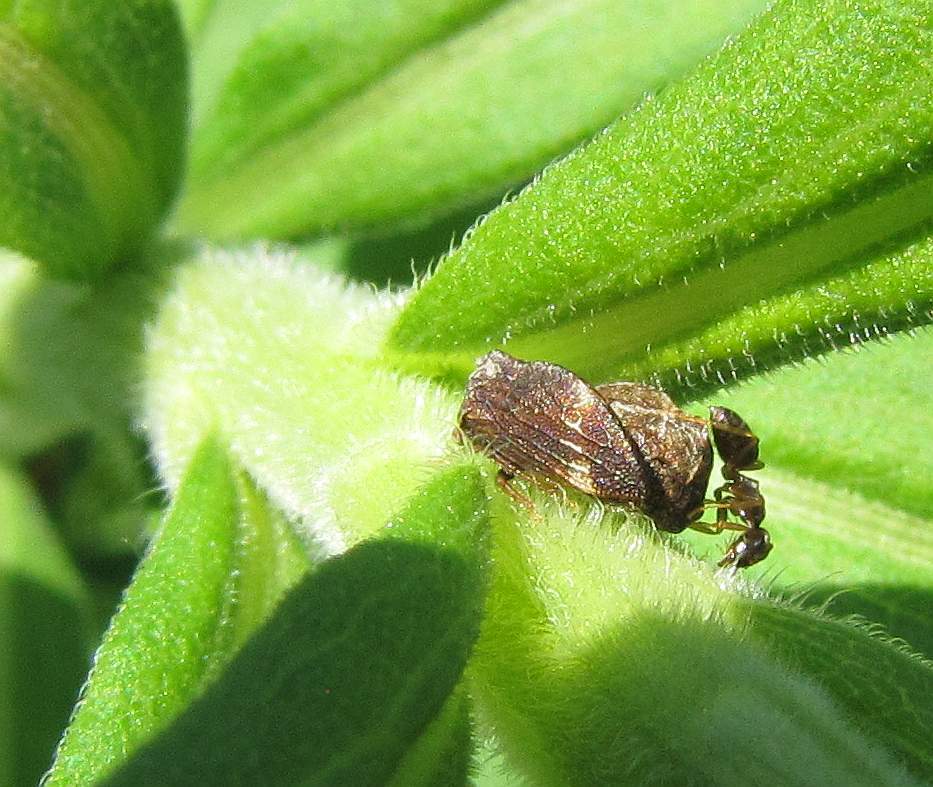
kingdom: Animalia
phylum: Arthropoda
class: Insecta
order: Hemiptera
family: Membracidae
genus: Publilia
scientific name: Publilia concava
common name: Aster treehopper
